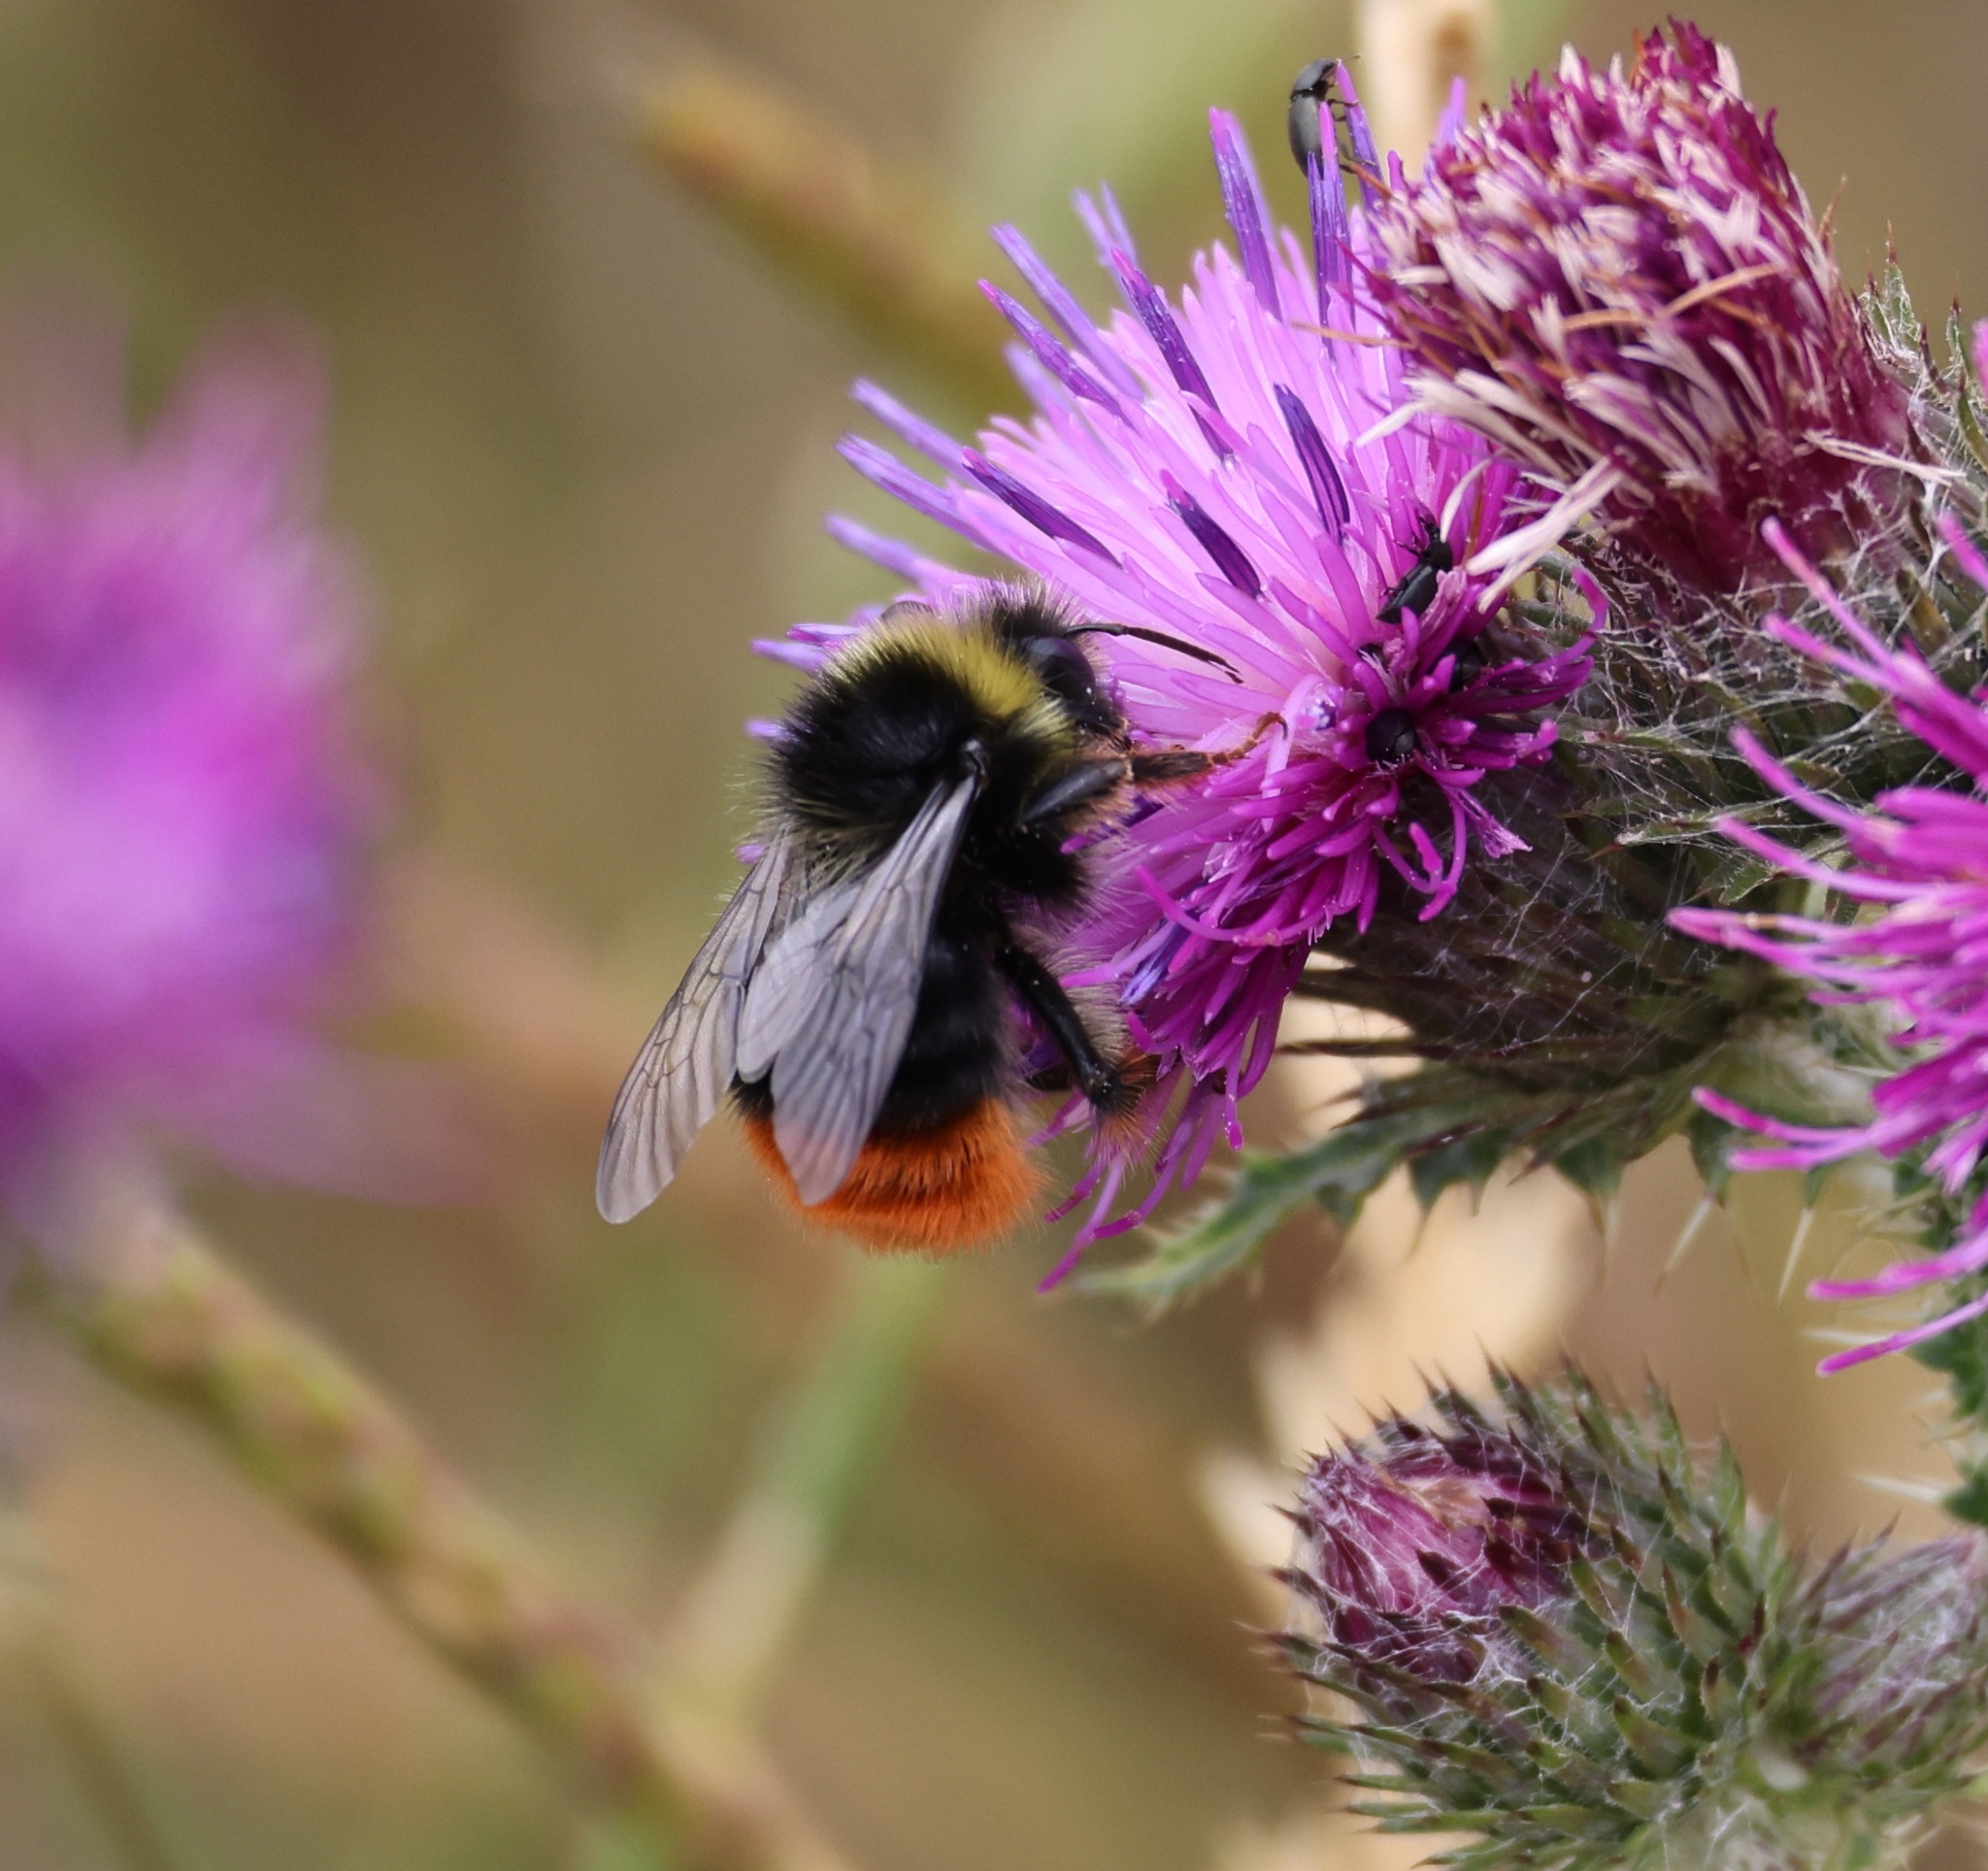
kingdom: Animalia
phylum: Arthropoda
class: Insecta
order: Hymenoptera
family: Apidae
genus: Bombus
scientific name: Bombus lapidarius
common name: Large red-tailed humble-bee
